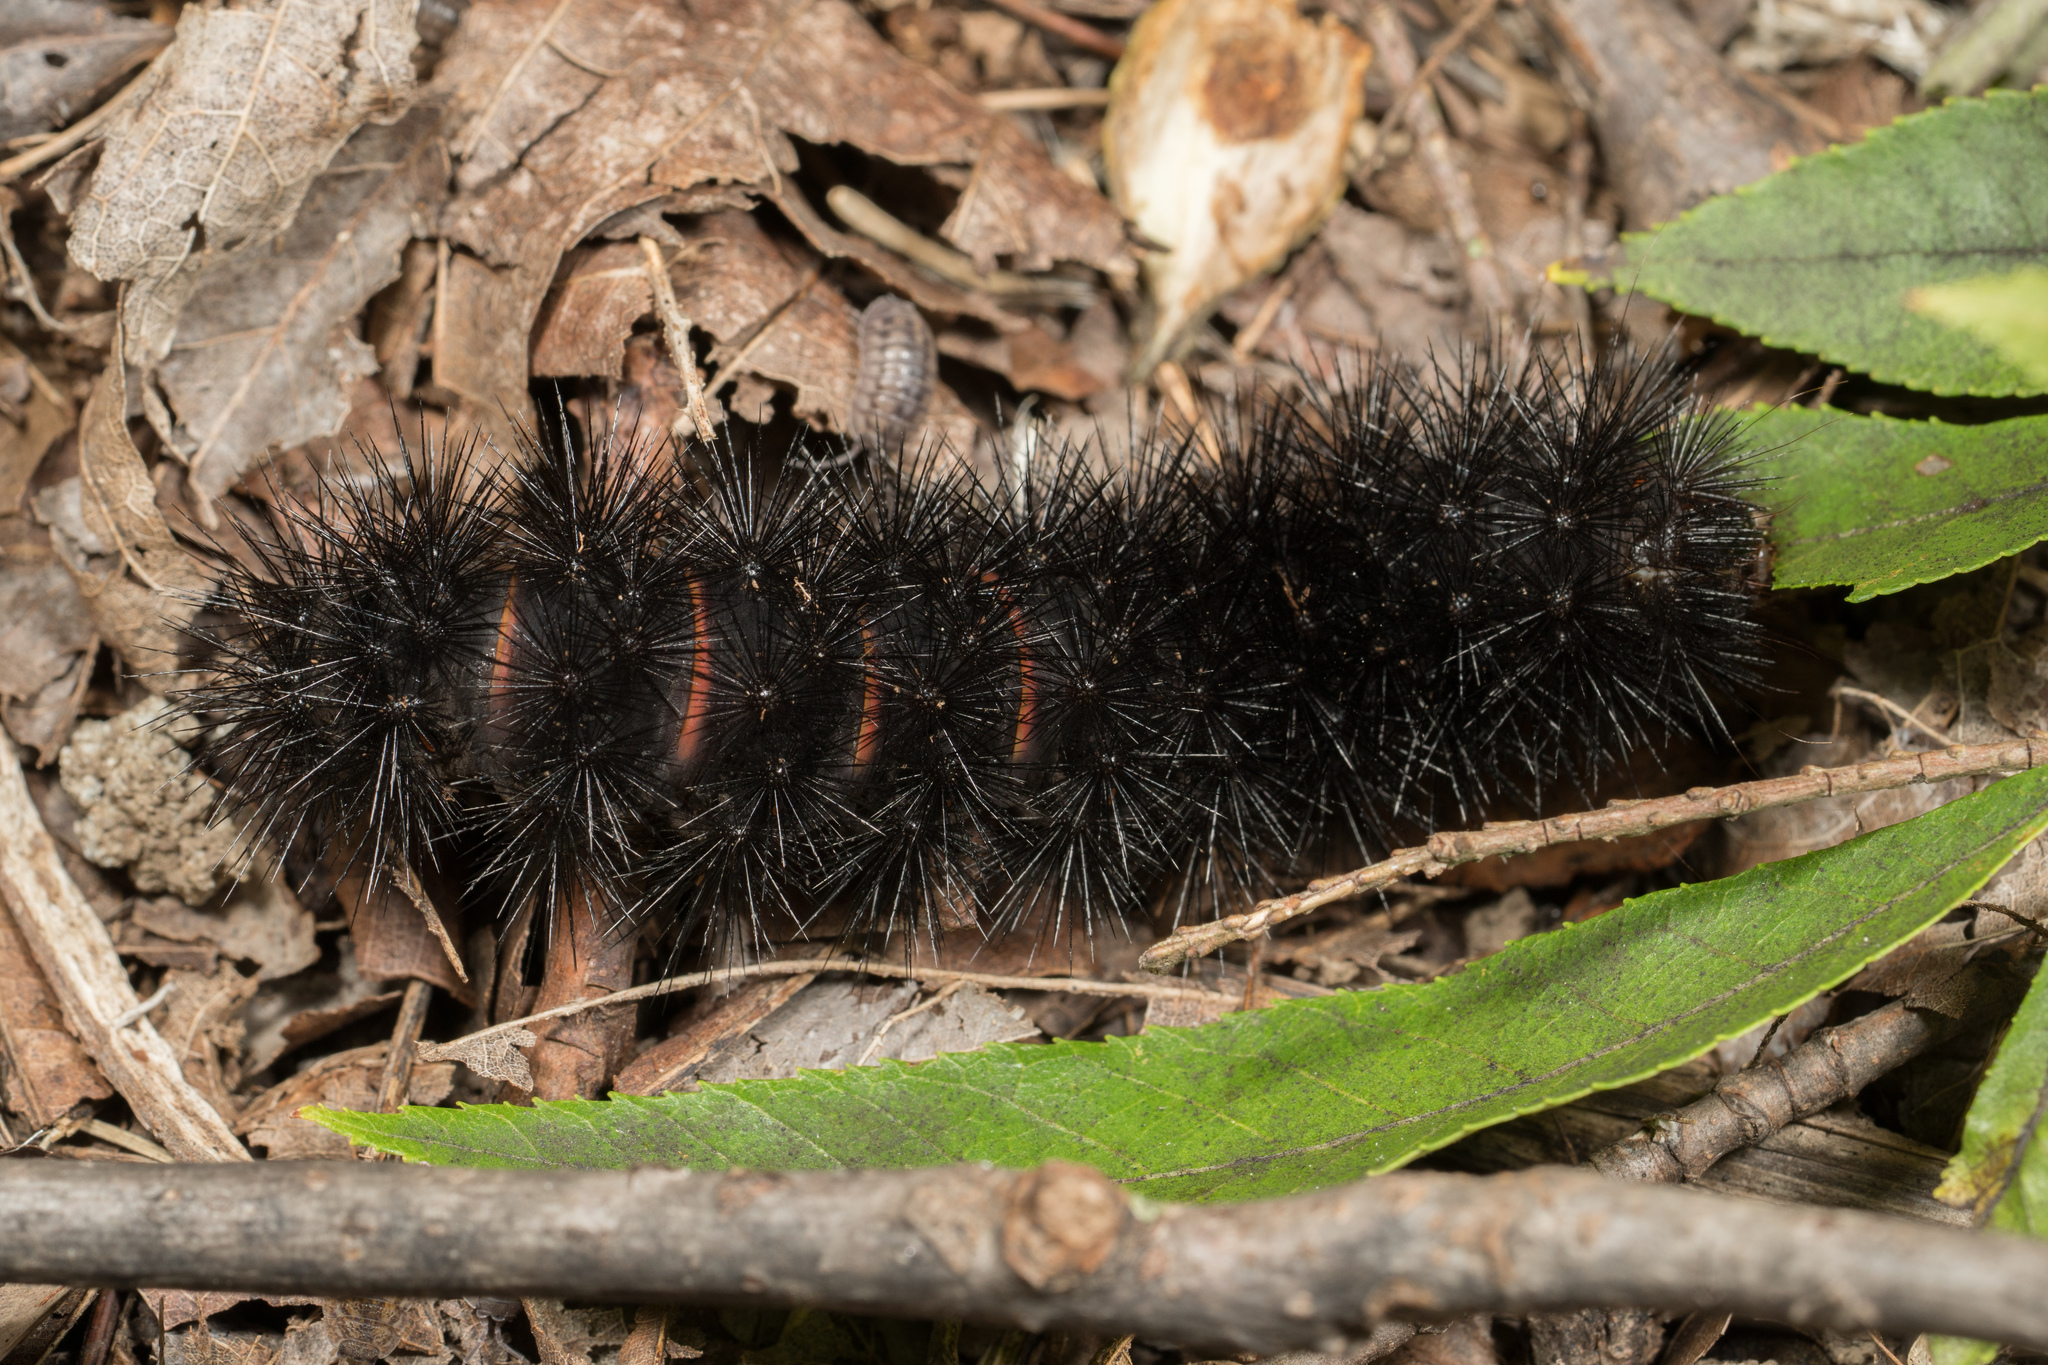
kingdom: Animalia
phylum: Arthropoda
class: Insecta
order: Lepidoptera
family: Erebidae
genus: Hypercompe
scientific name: Hypercompe scribonia
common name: Giant leopard moth
